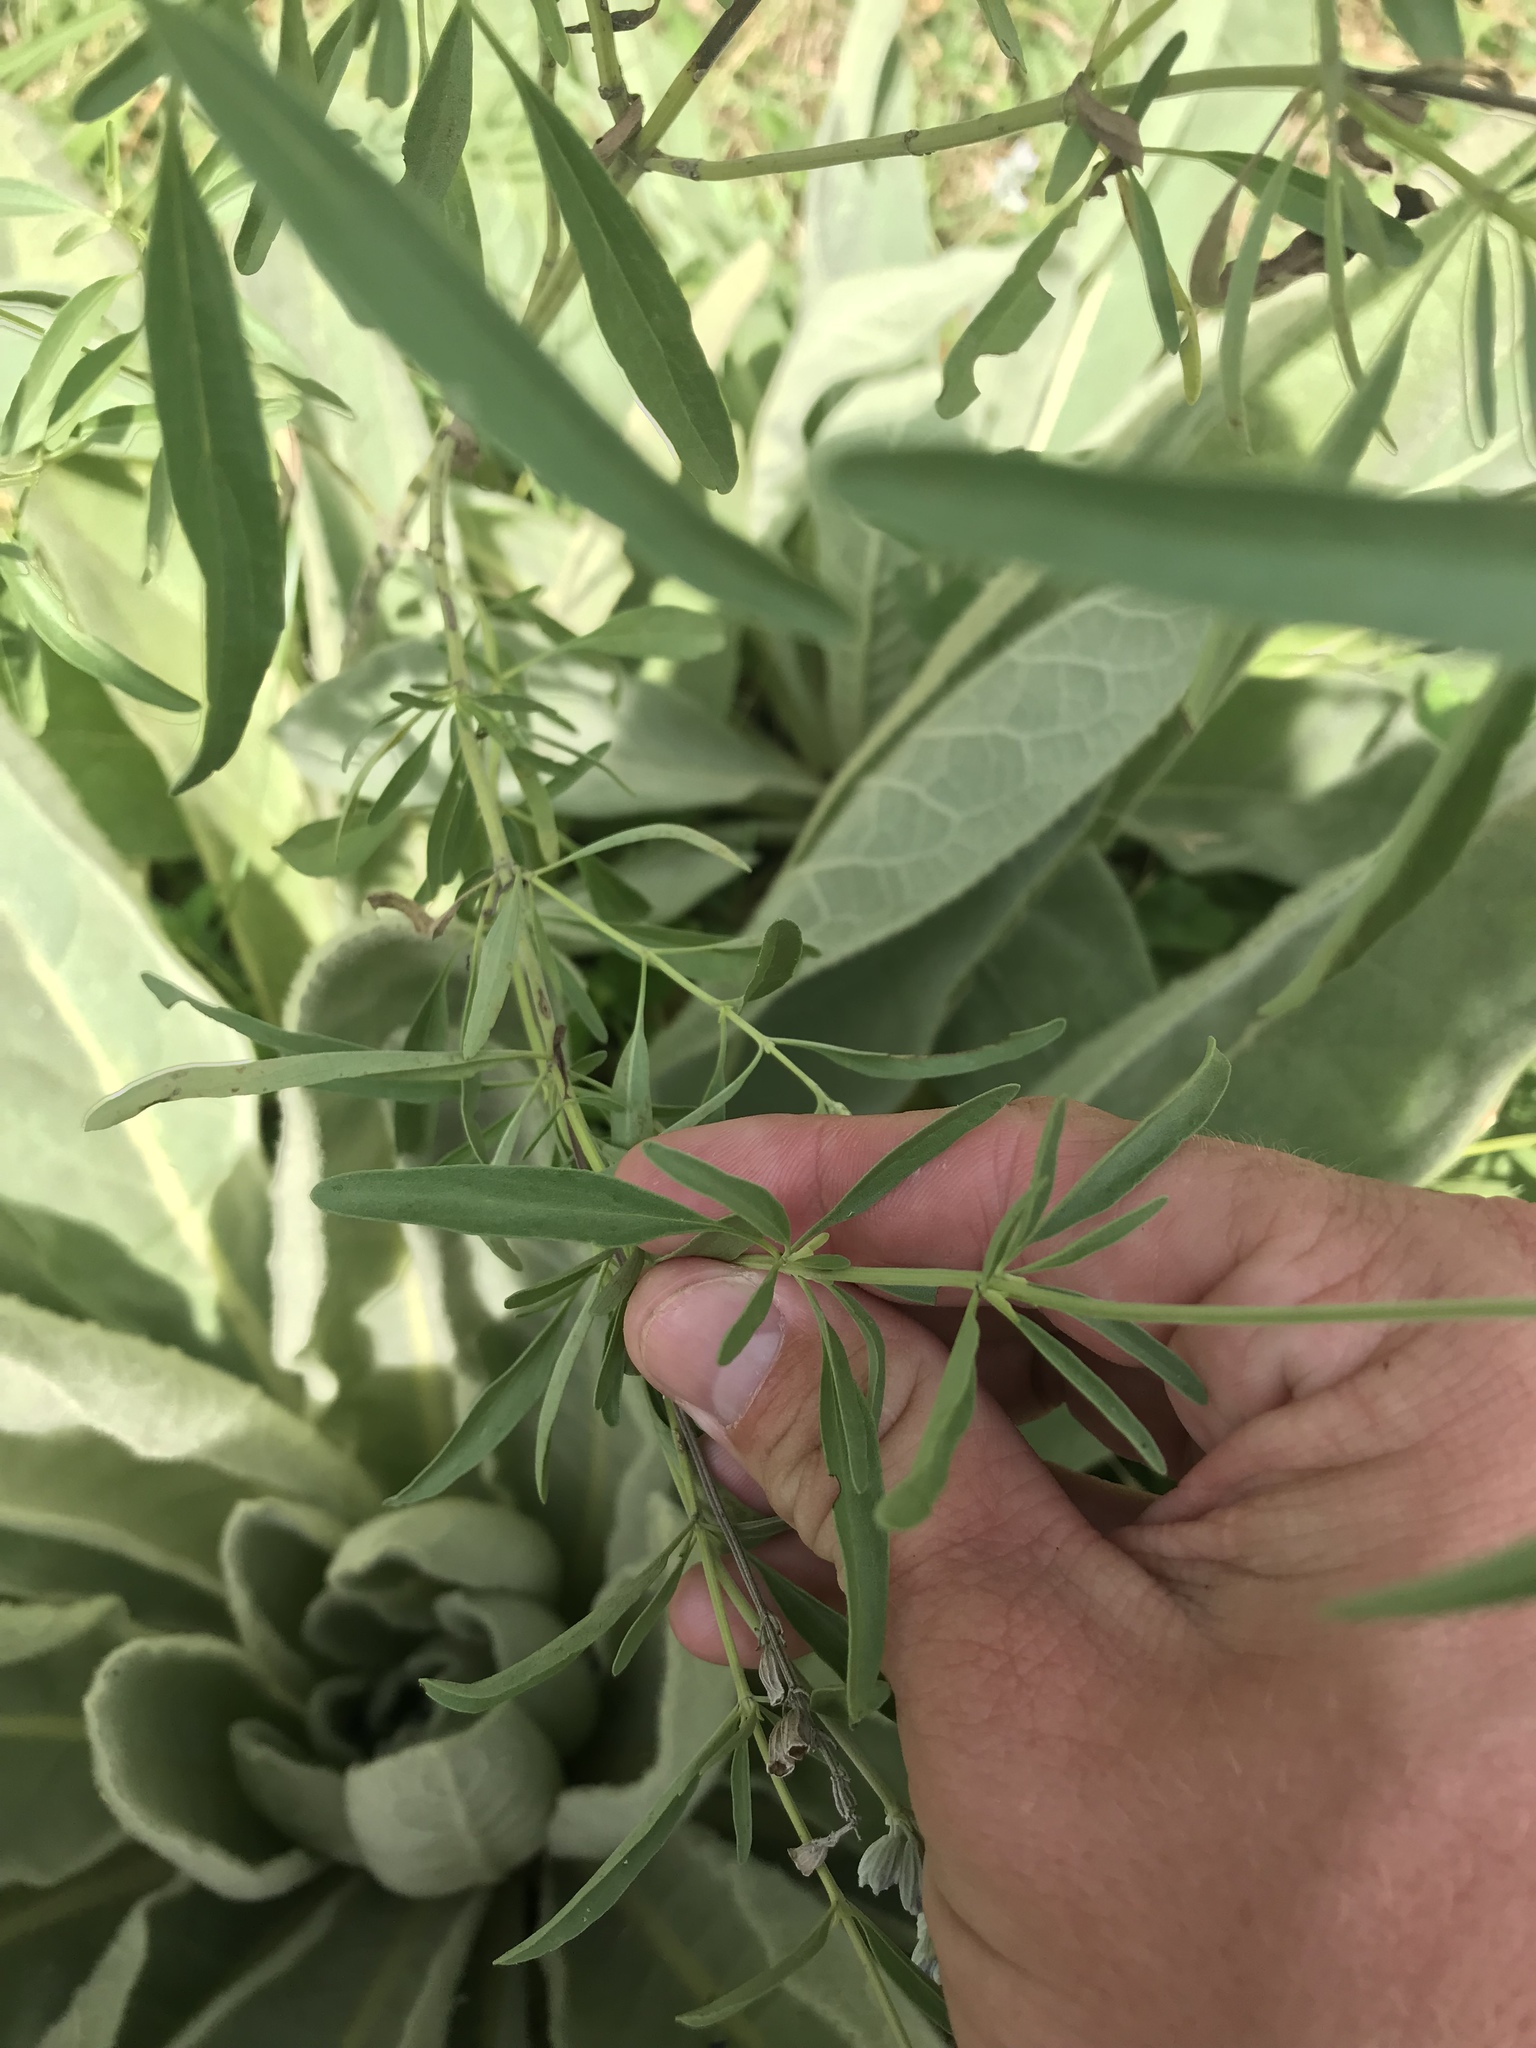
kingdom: Plantae
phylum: Tracheophyta
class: Magnoliopsida
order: Lamiales
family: Lamiaceae
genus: Salvia
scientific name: Salvia farinacea
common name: Mealy sage
